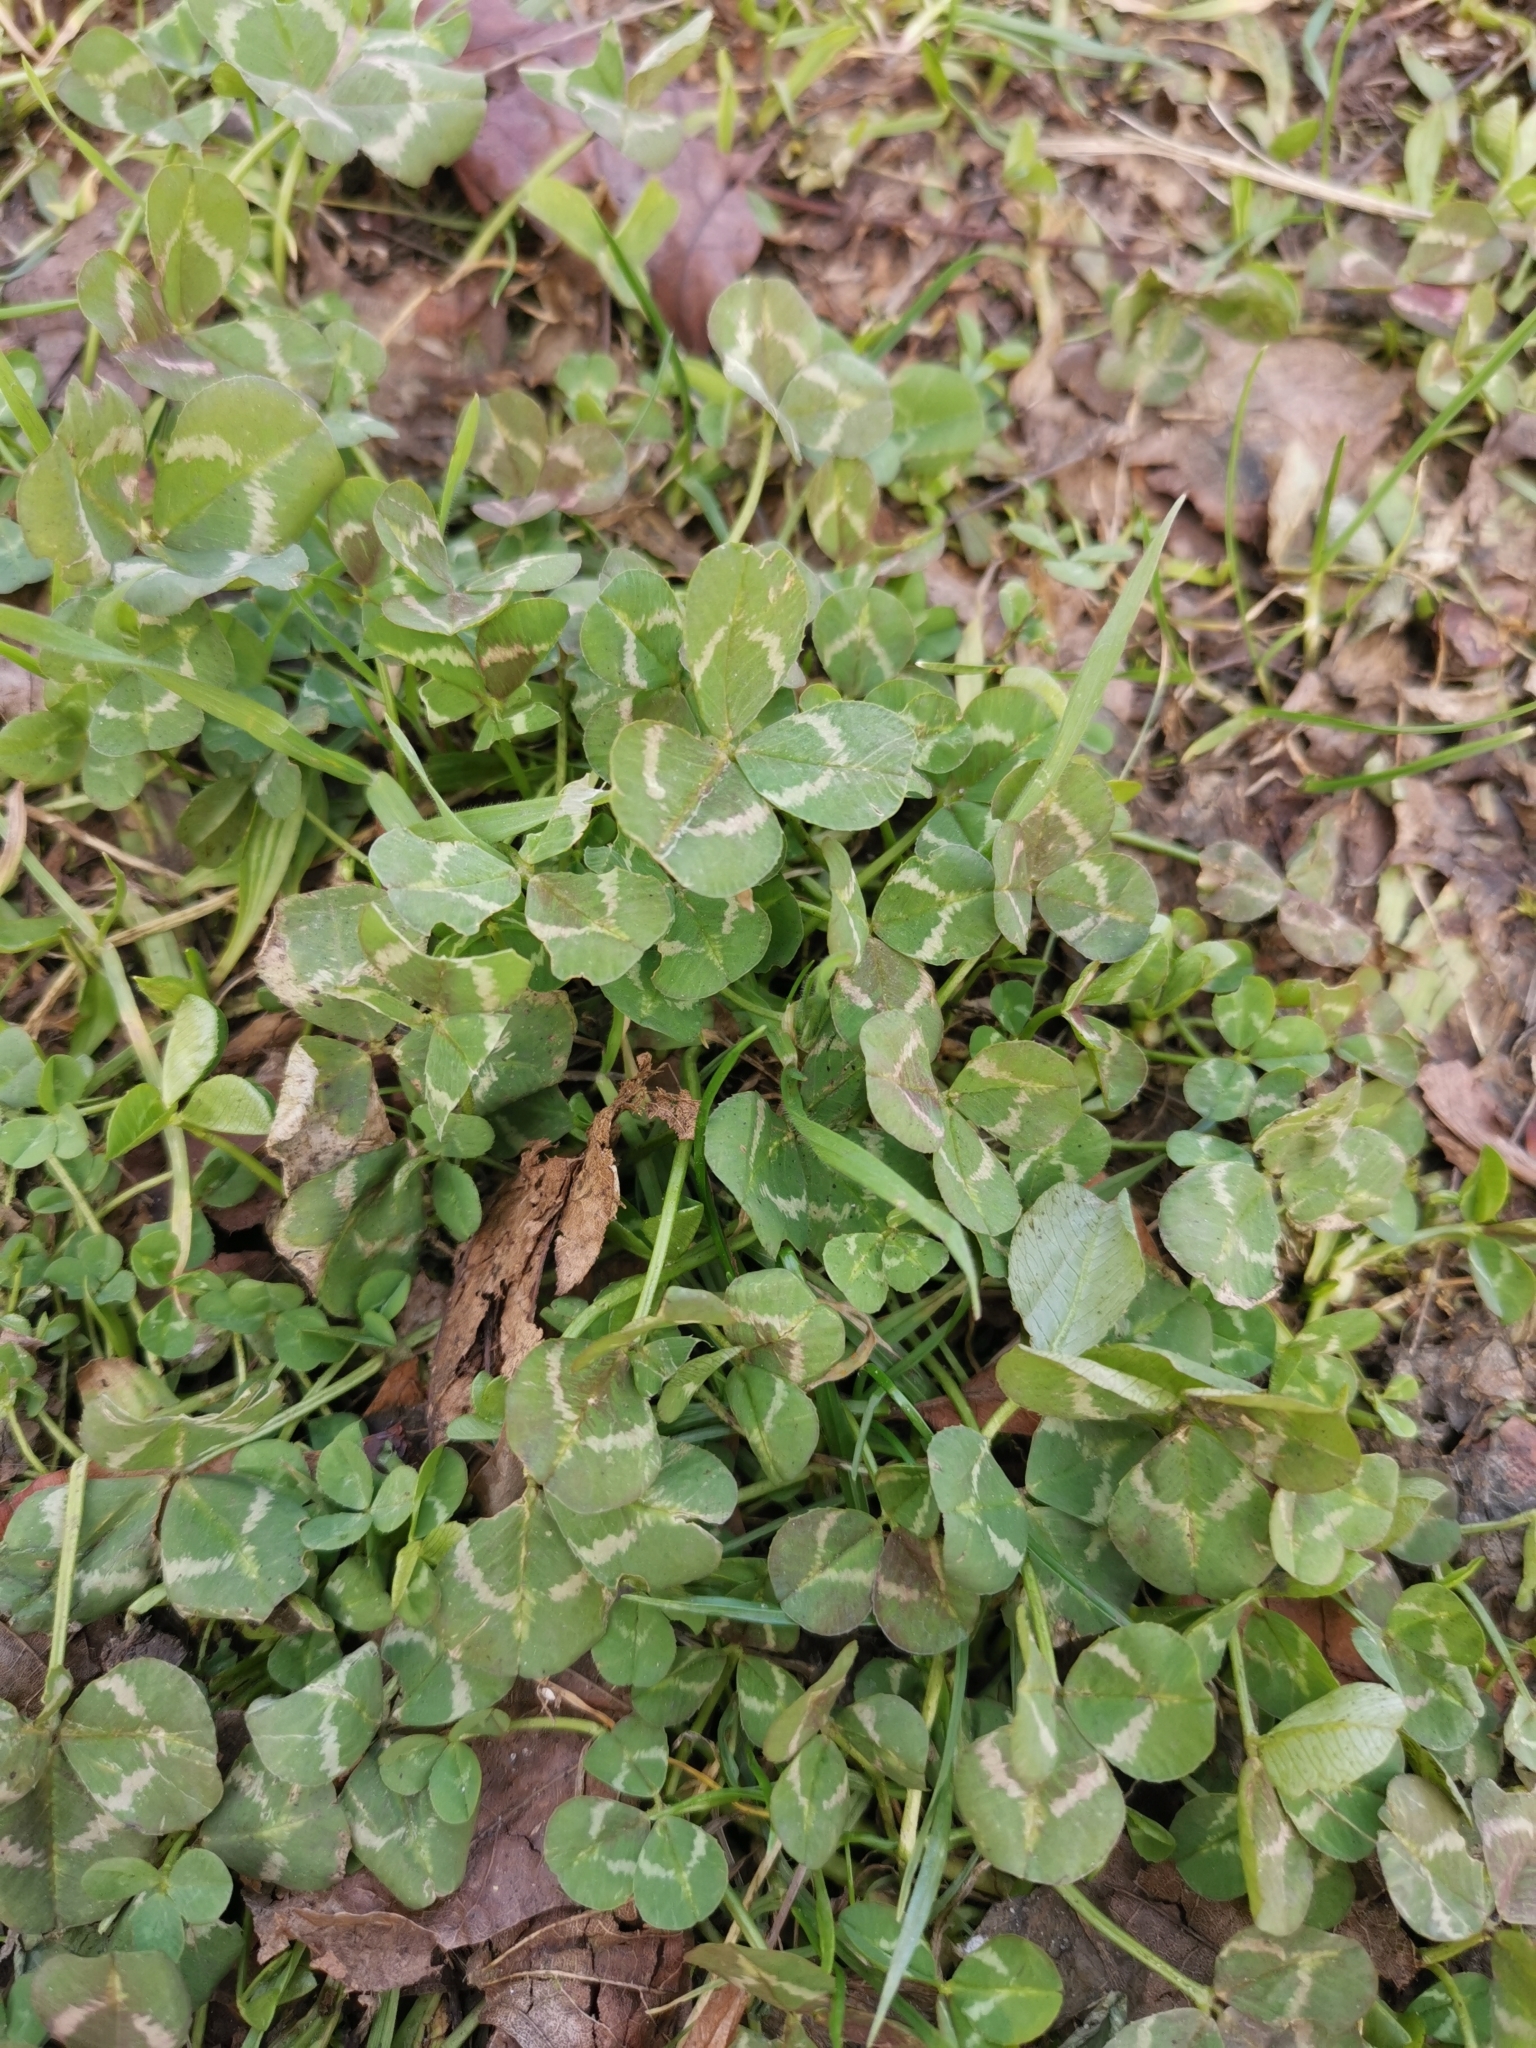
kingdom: Plantae
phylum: Tracheophyta
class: Magnoliopsida
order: Fabales
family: Fabaceae
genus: Trifolium
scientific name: Trifolium repens
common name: White clover
